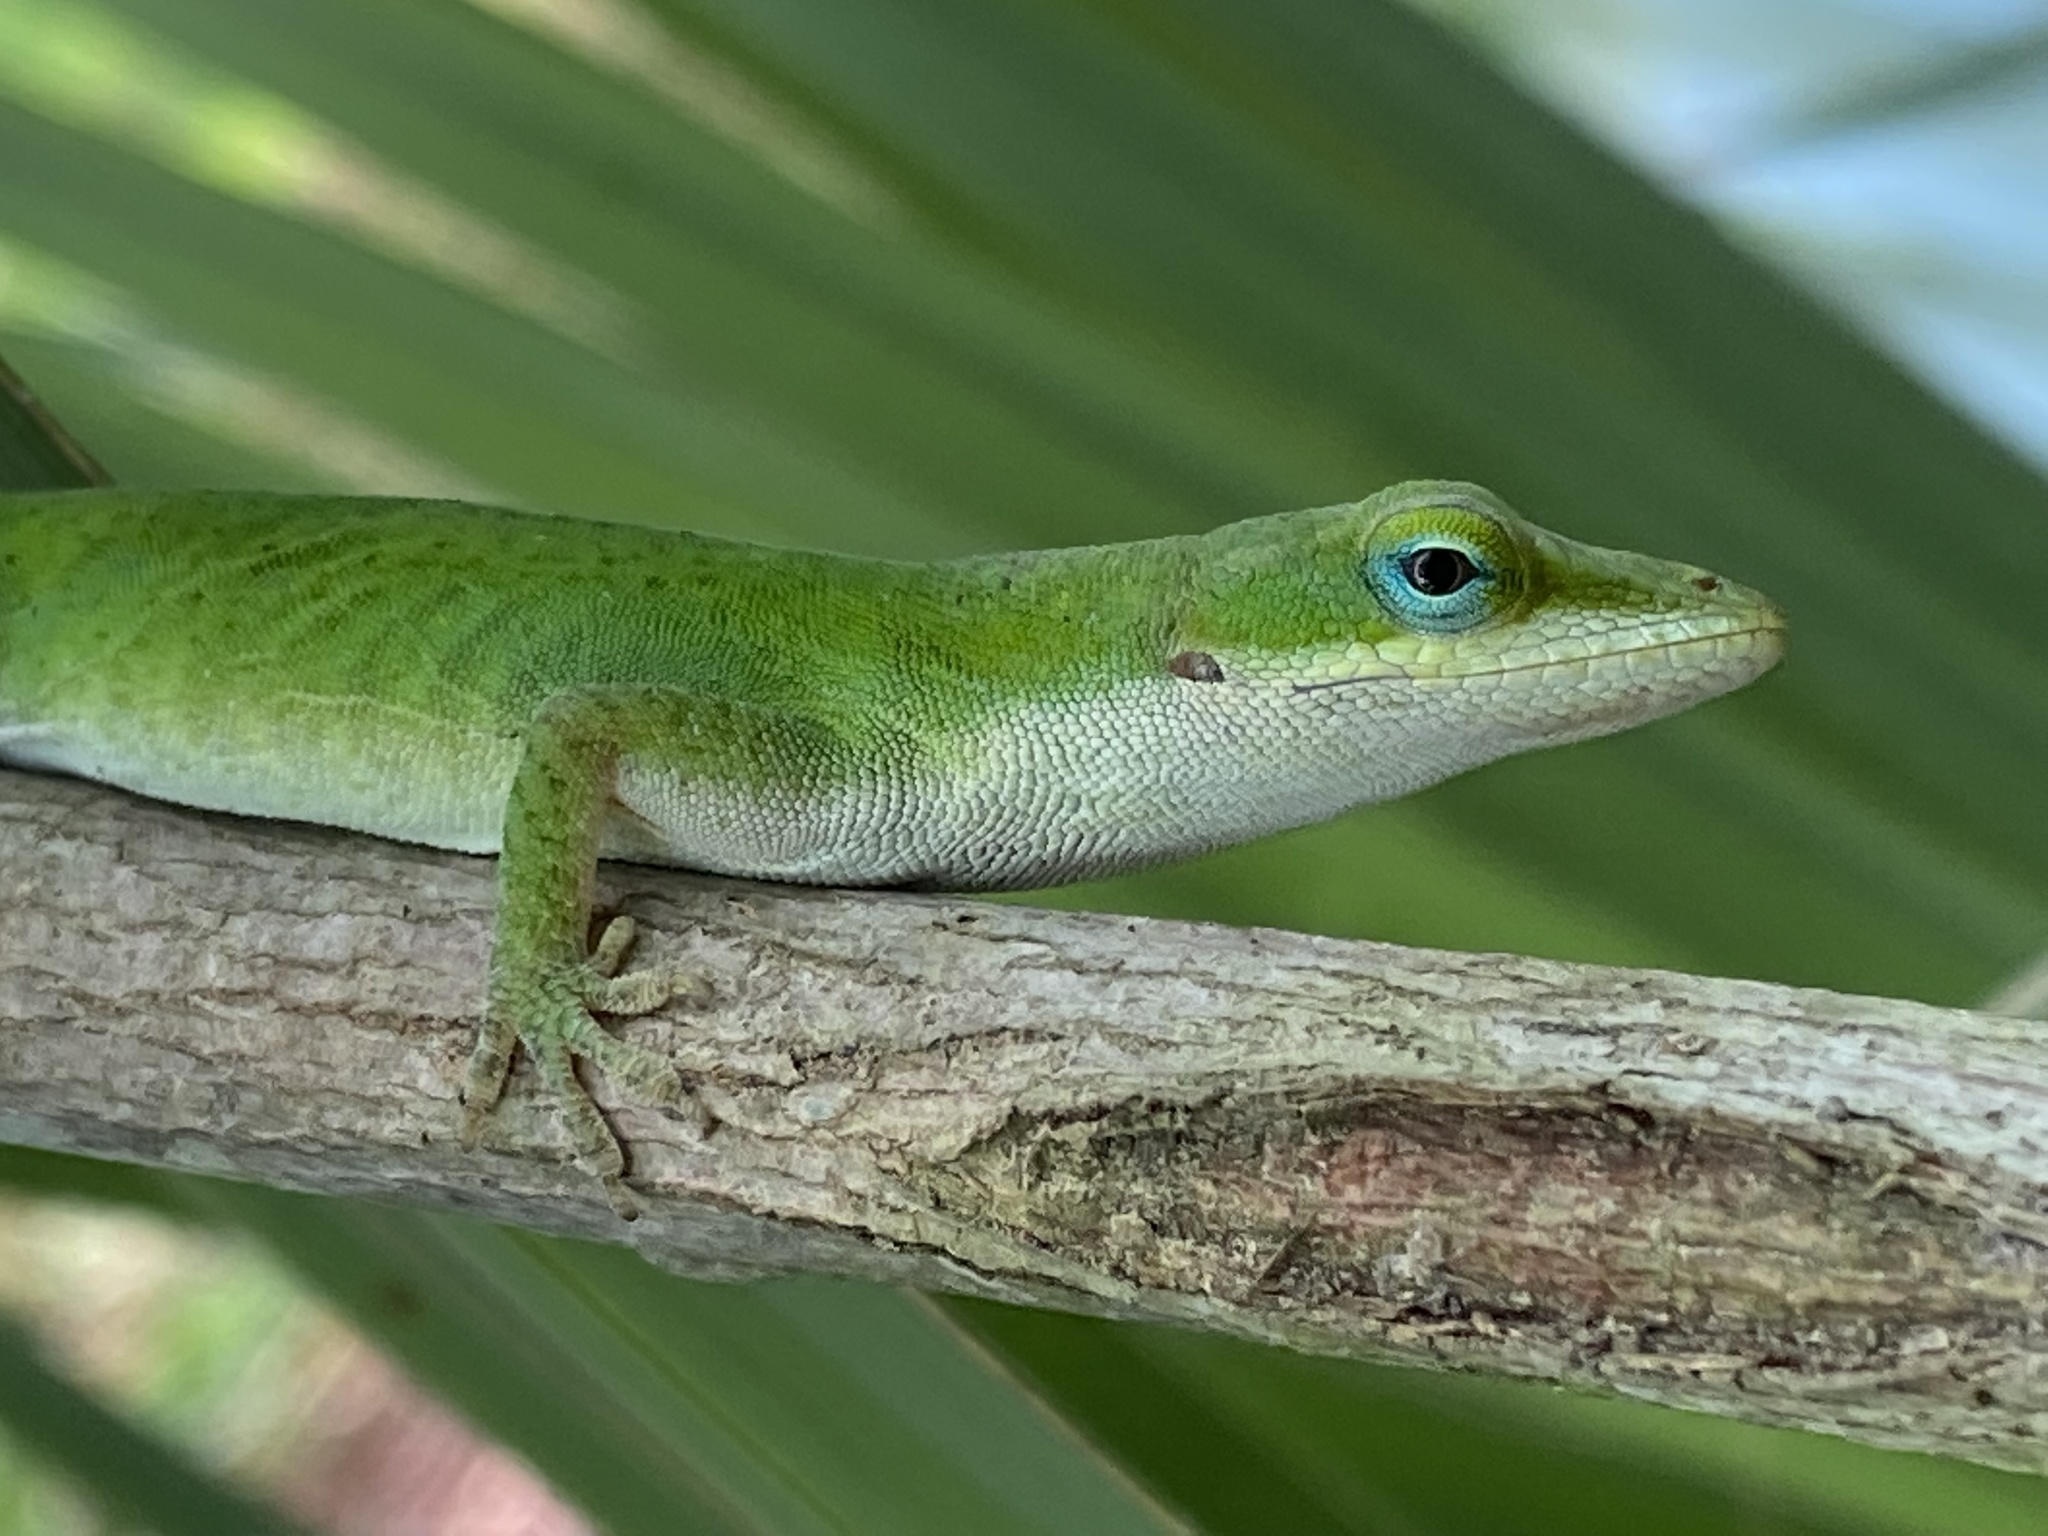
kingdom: Animalia
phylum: Chordata
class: Squamata
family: Dactyloidae
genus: Anolis
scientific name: Anolis carolinensis
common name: Green anole
